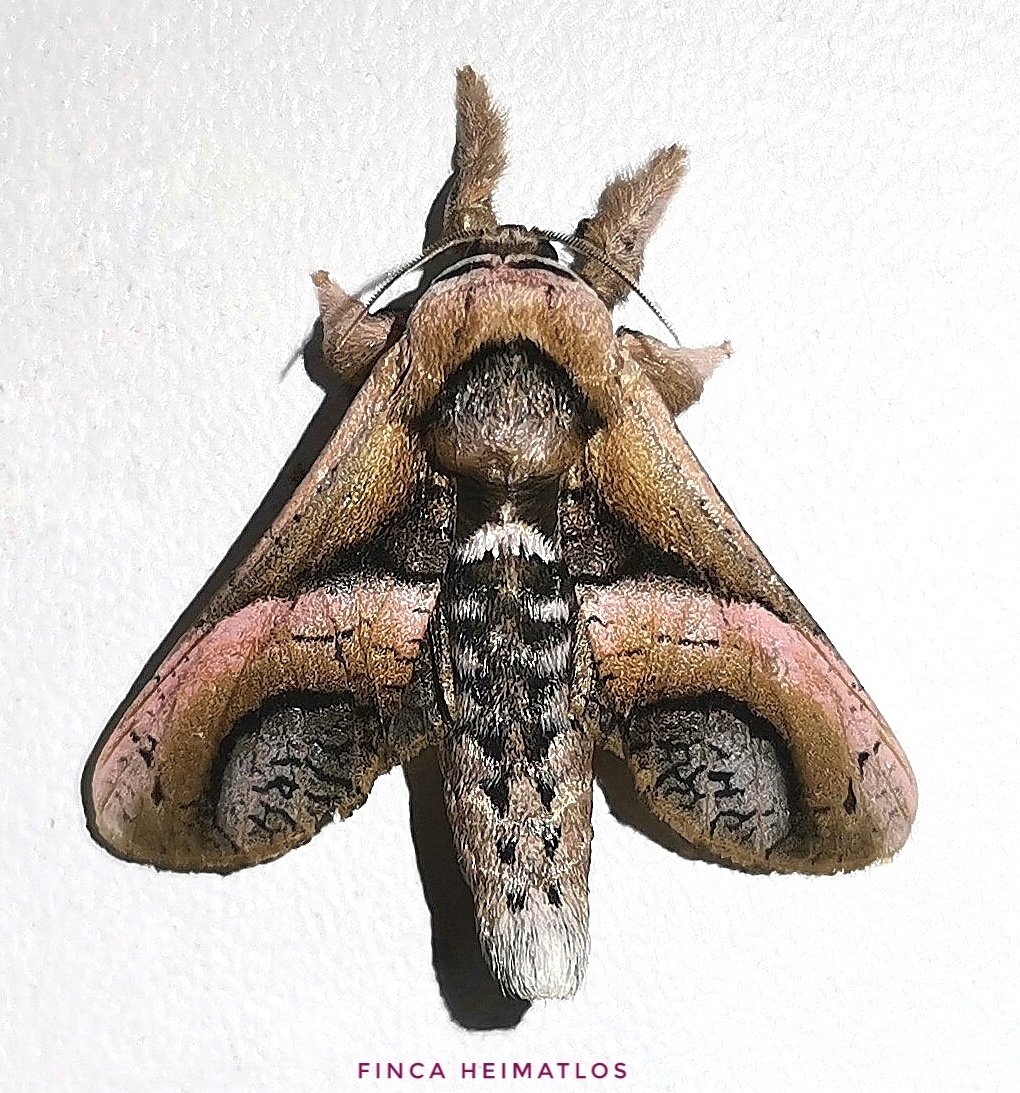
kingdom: Animalia
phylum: Arthropoda
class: Insecta
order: Lepidoptera
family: Cossidae
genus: Puseyia
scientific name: Puseyia puseyiae
